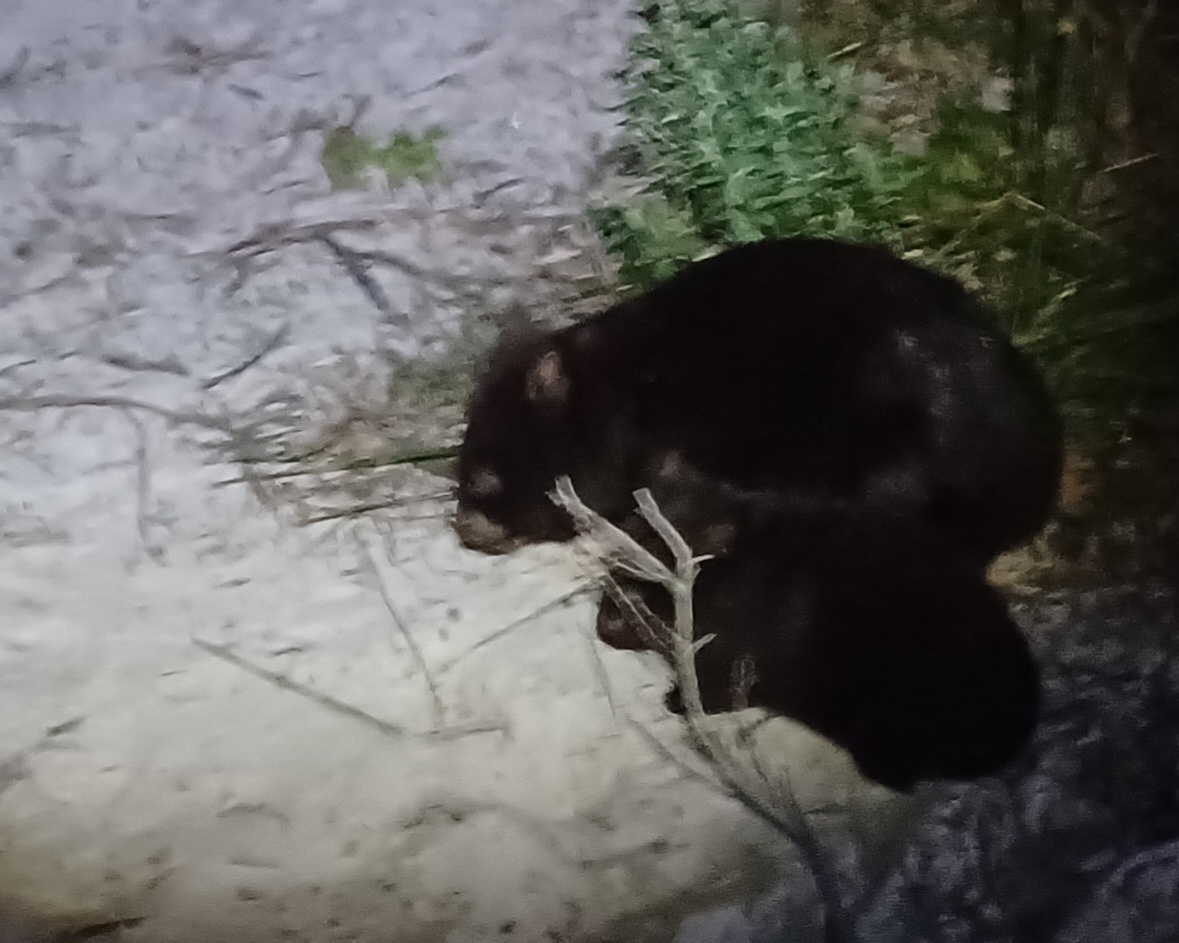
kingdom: Animalia
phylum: Chordata
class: Mammalia
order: Diprotodontia
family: Vombatidae
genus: Vombatus
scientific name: Vombatus ursinus
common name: Common wombat
